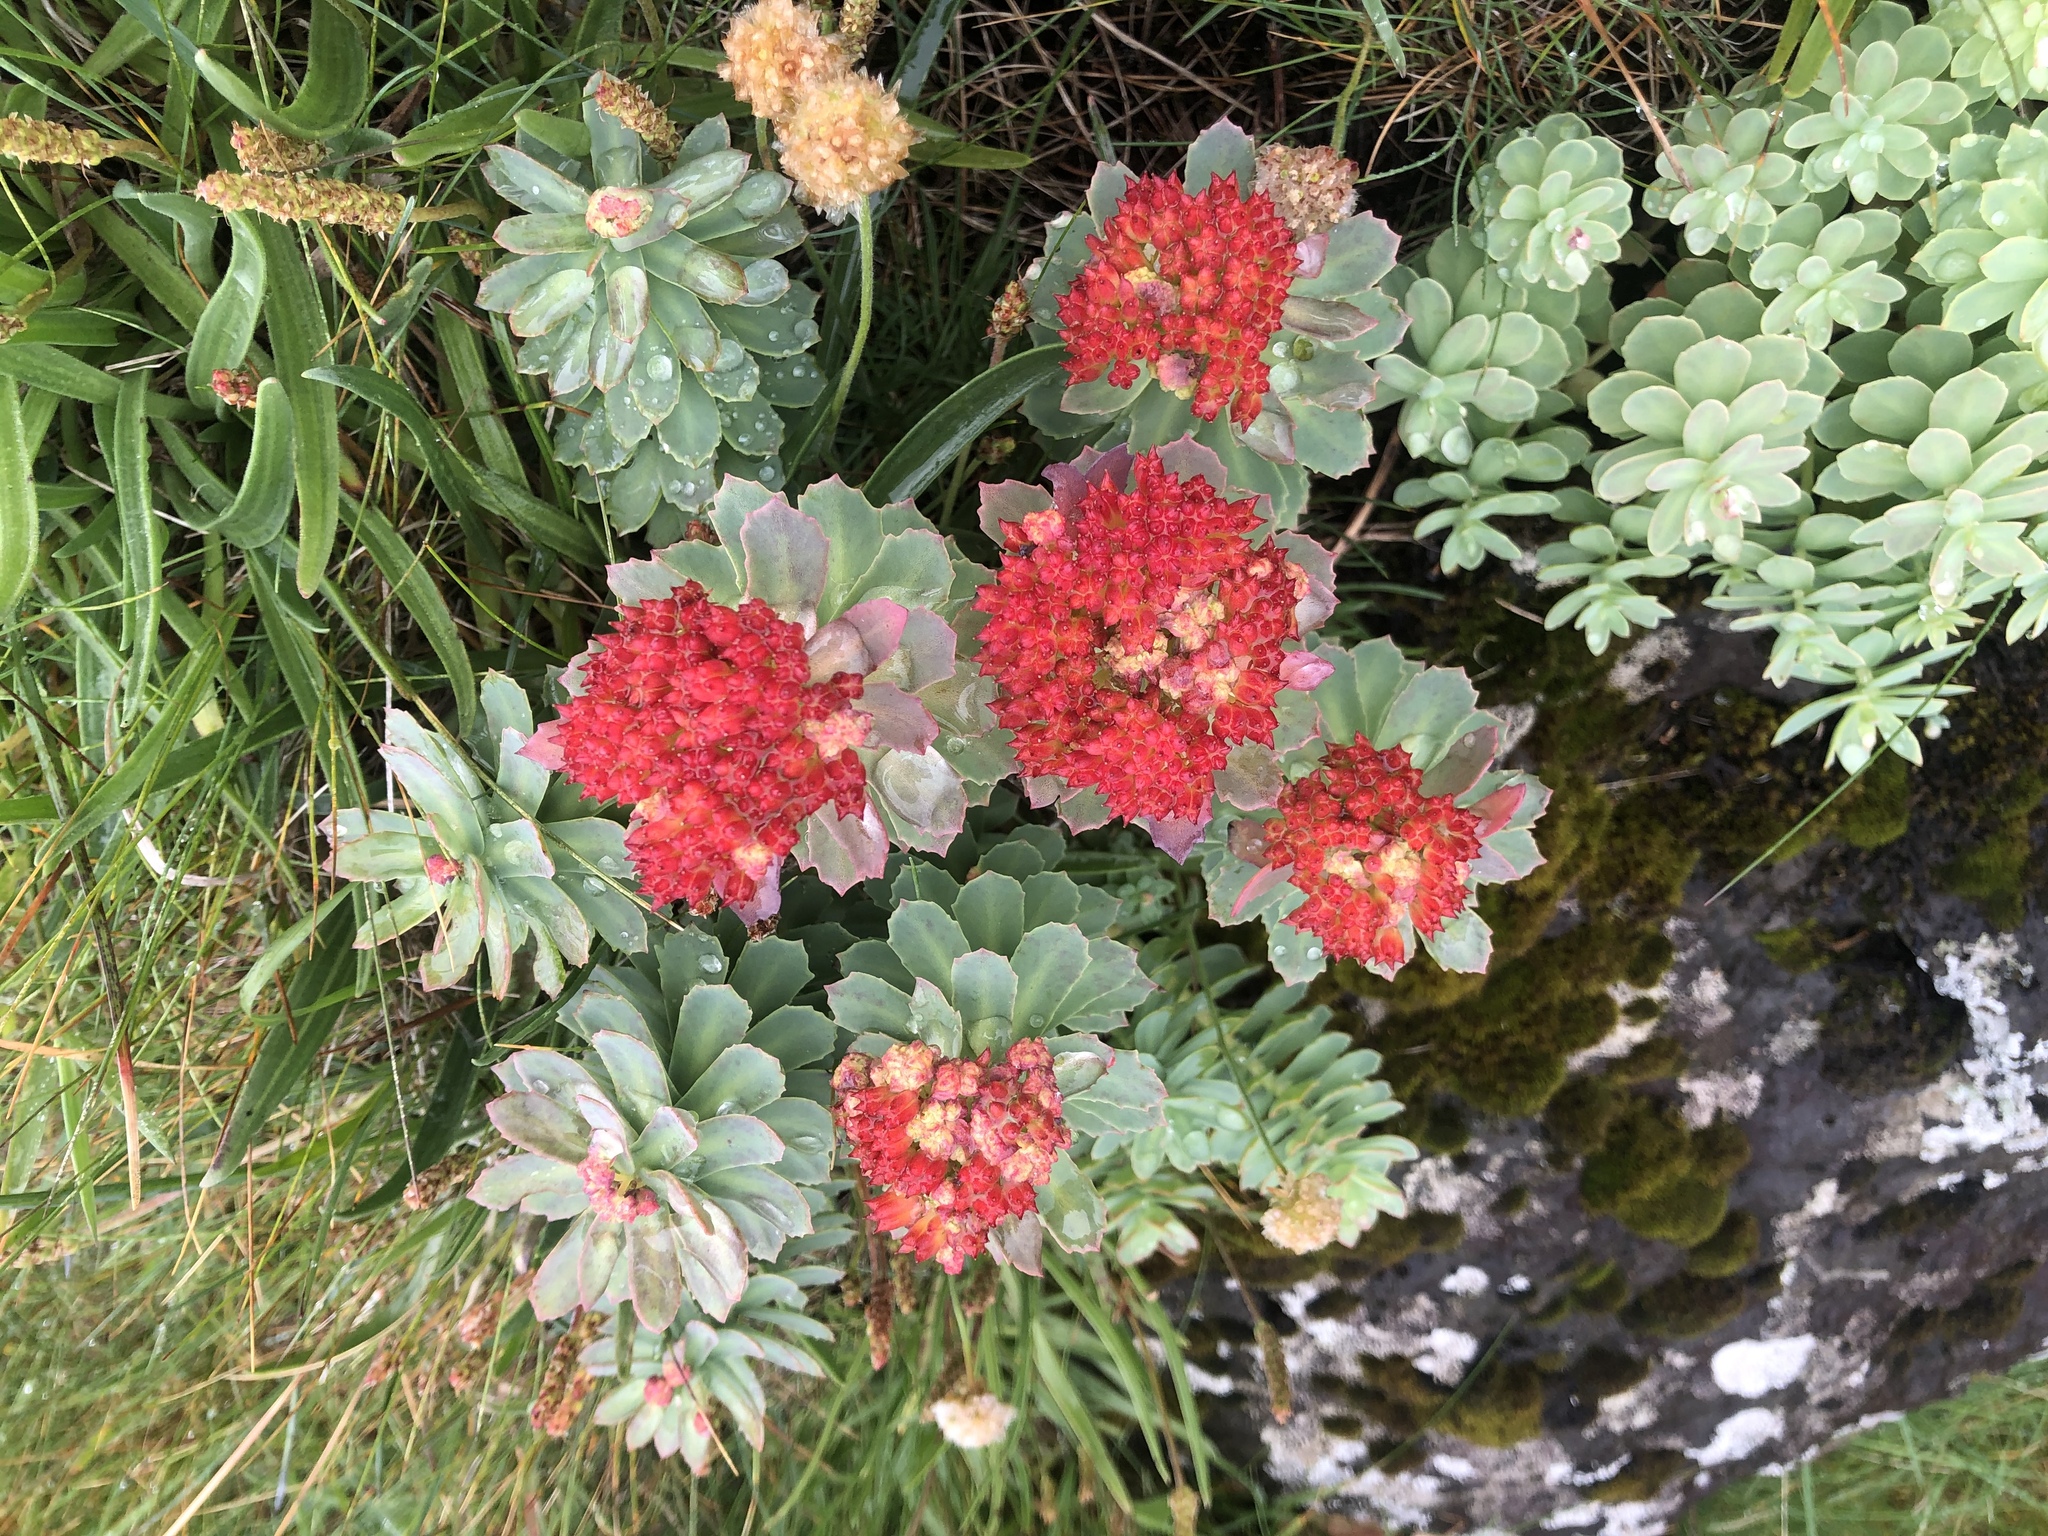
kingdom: Plantae
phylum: Tracheophyta
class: Magnoliopsida
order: Saxifragales
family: Crassulaceae
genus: Rhodiola
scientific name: Rhodiola rosea
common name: Roseroot
